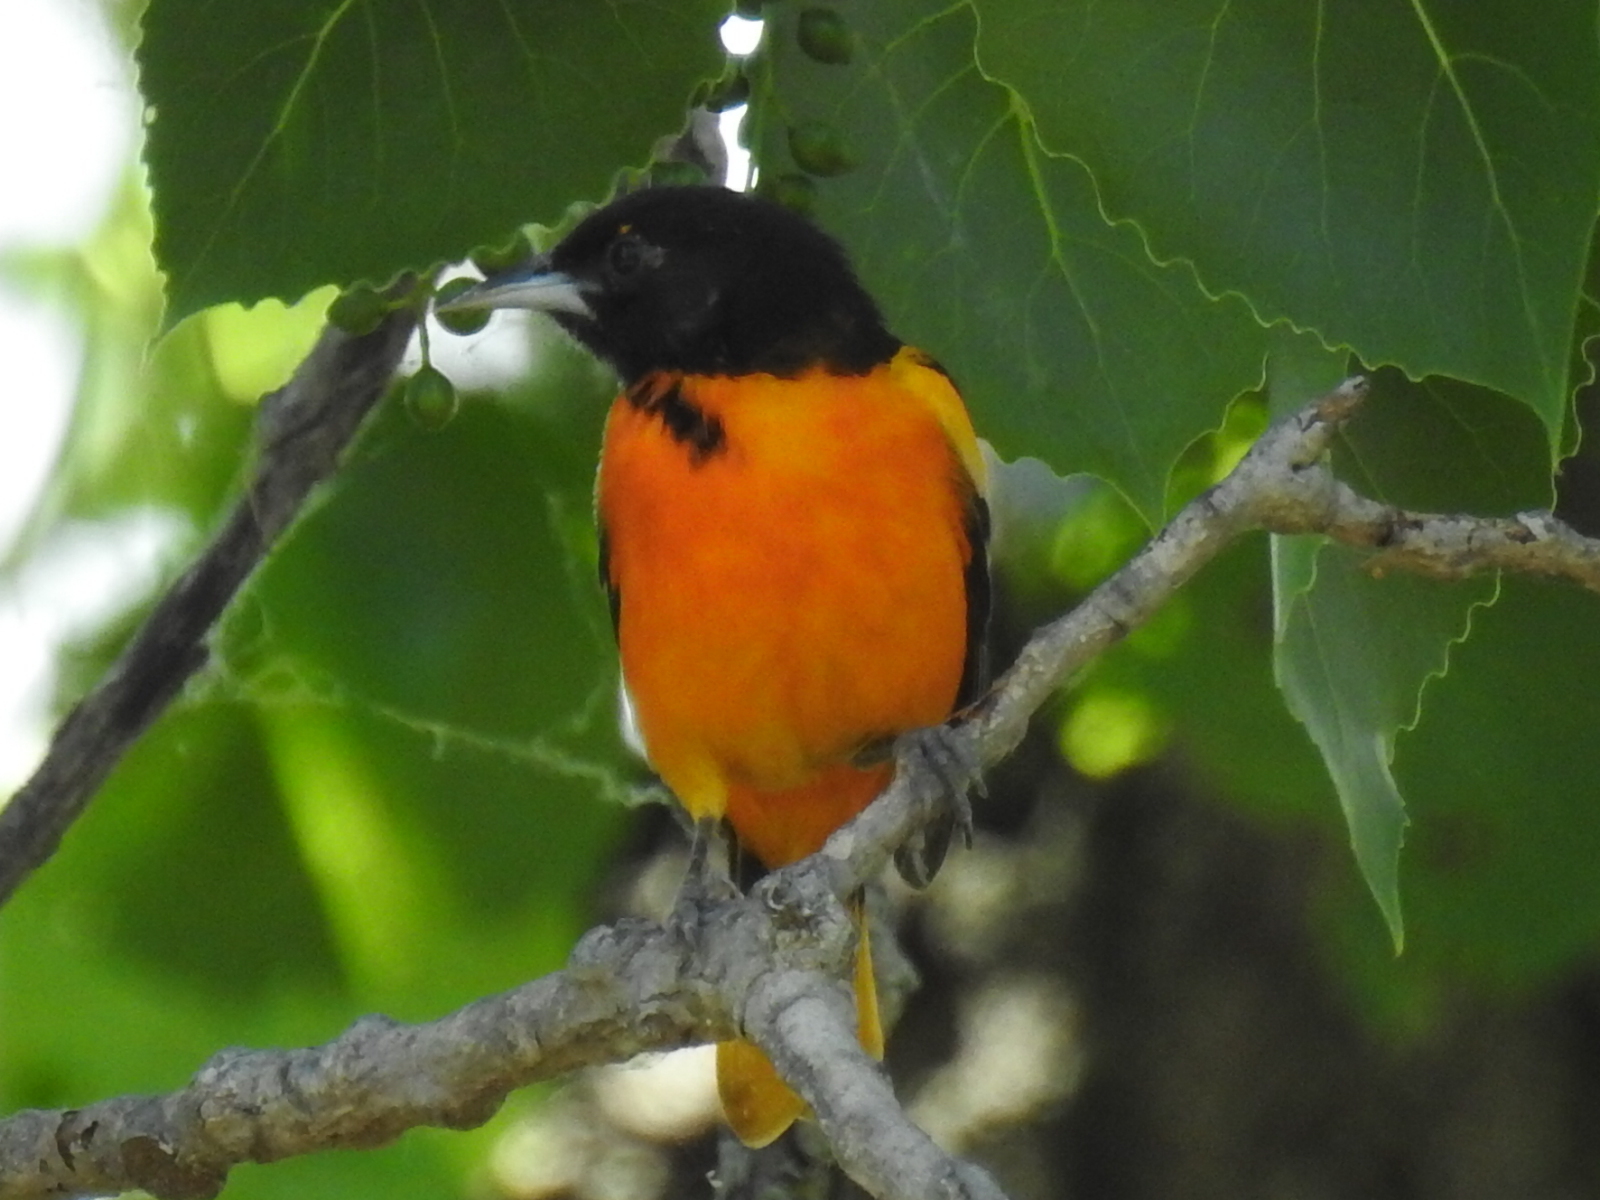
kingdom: Animalia
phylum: Chordata
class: Aves
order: Passeriformes
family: Icteridae
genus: Icterus
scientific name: Icterus galbula
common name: Baltimore oriole
